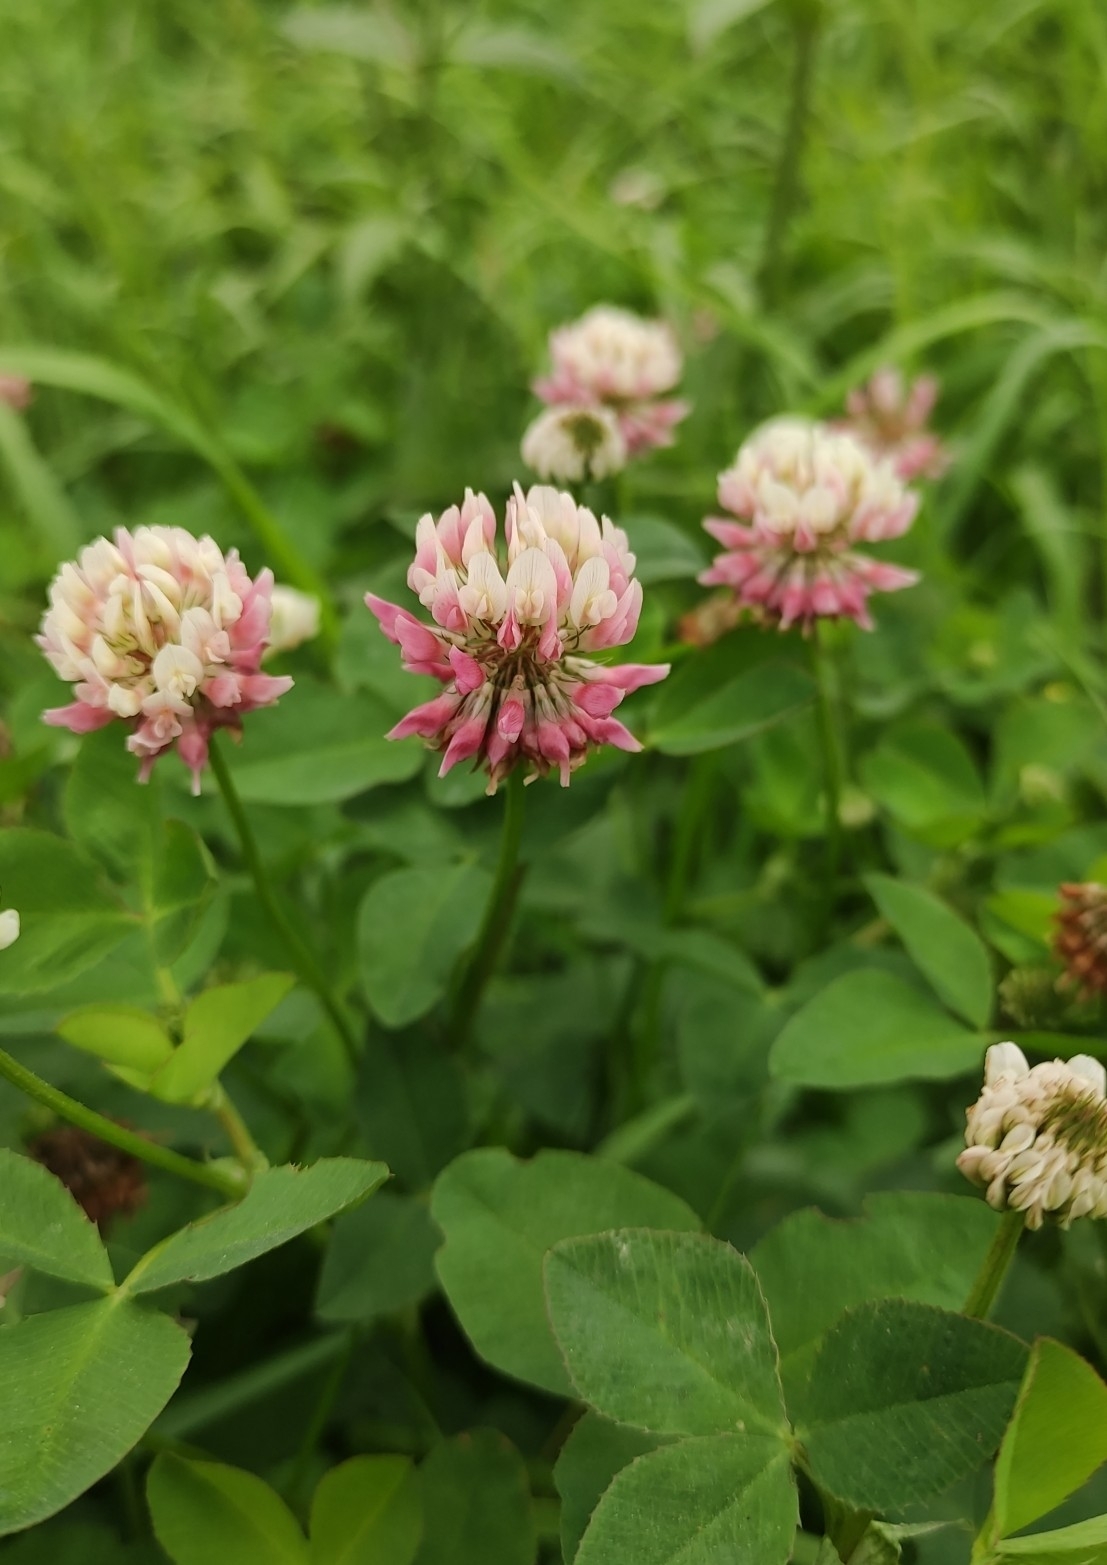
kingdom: Plantae
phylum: Tracheophyta
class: Magnoliopsida
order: Fabales
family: Fabaceae
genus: Trifolium
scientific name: Trifolium hybridum
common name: Alsike clover
